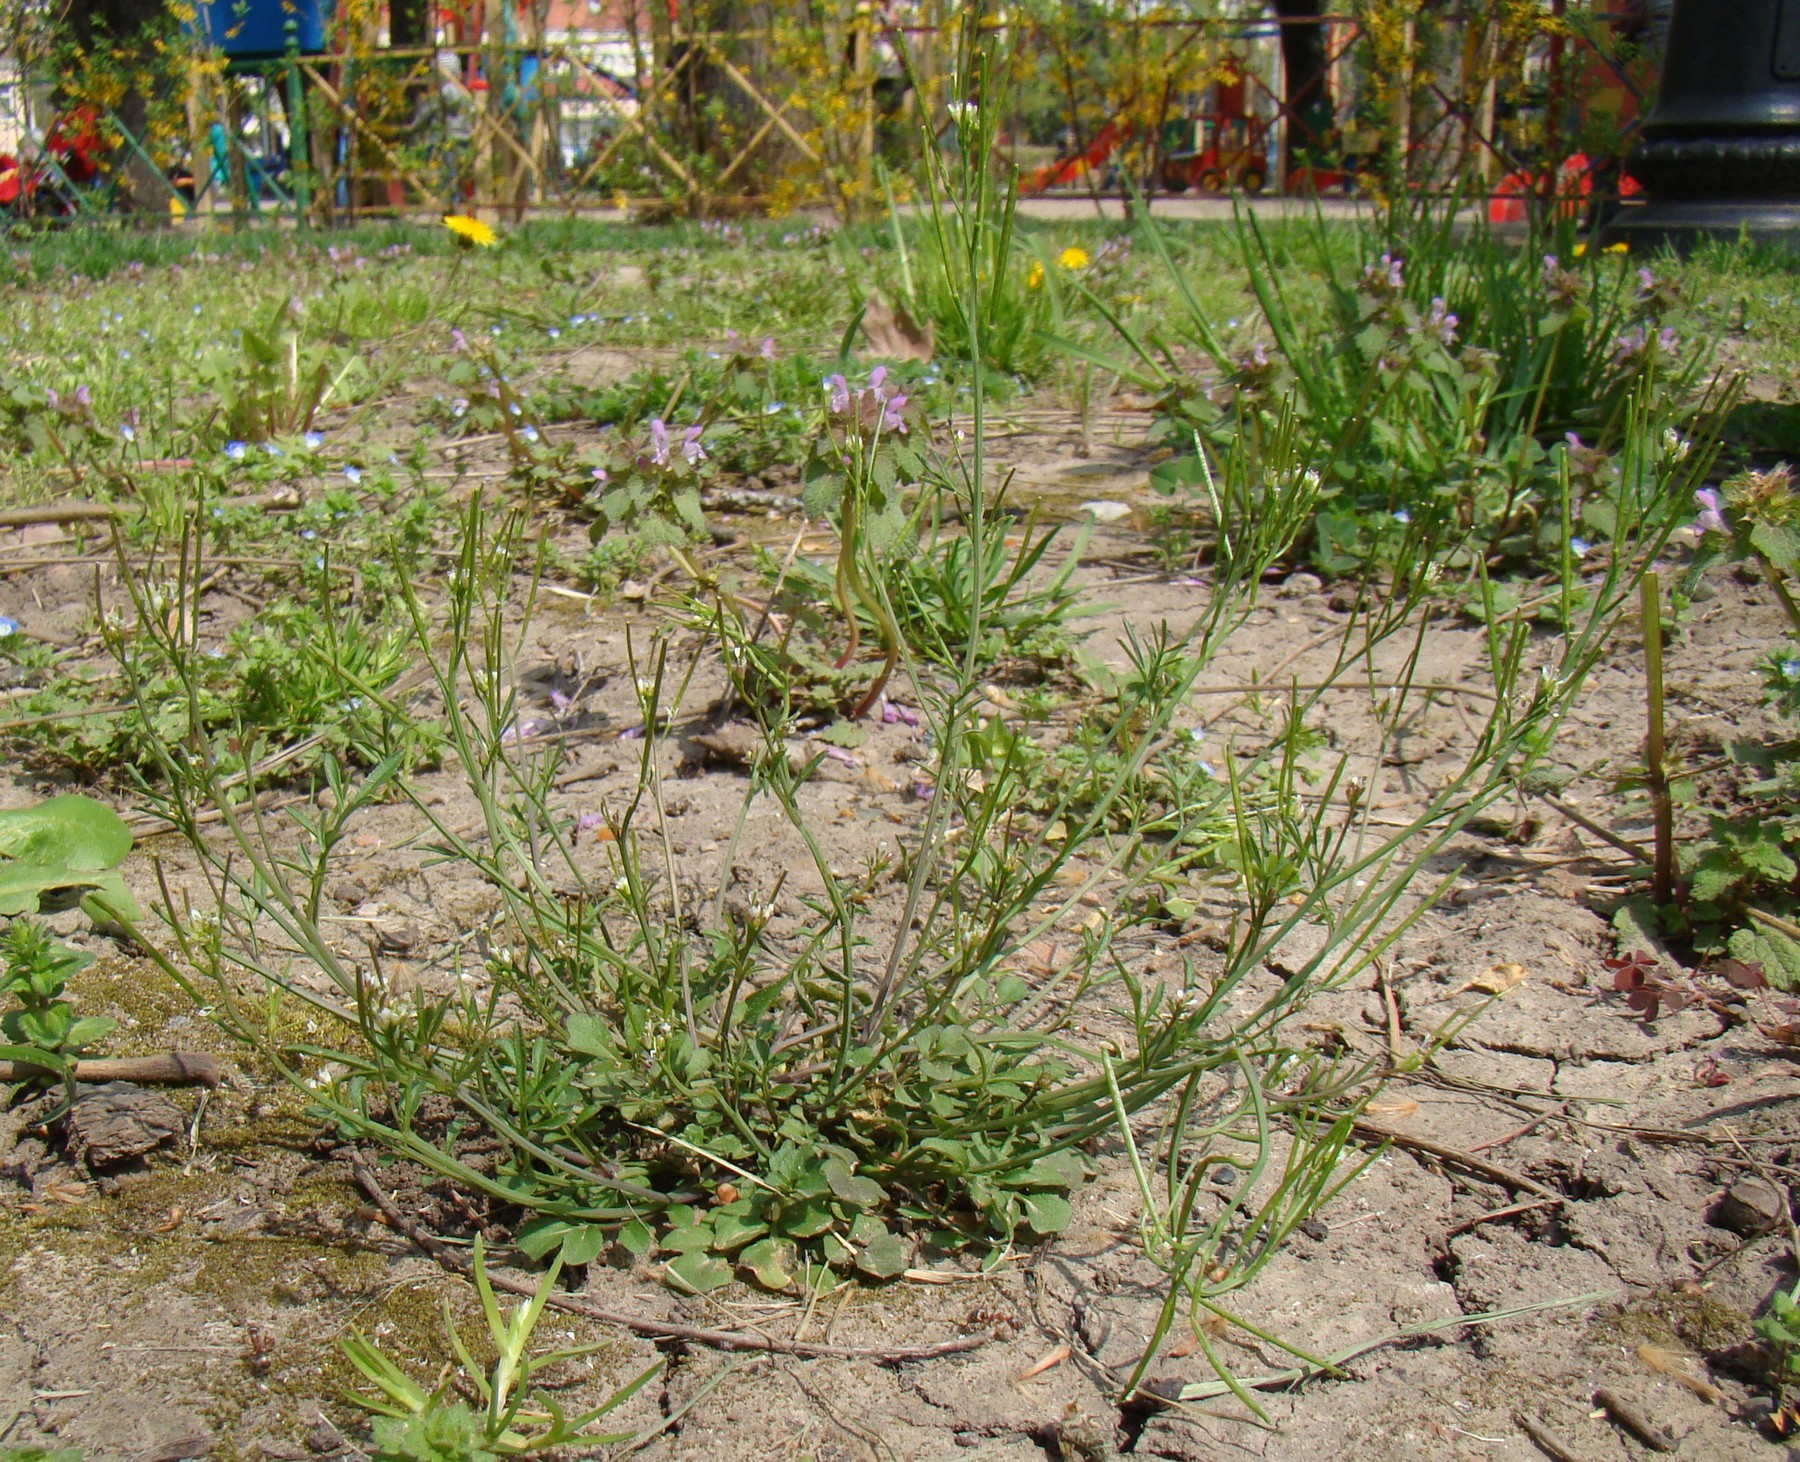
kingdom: Plantae
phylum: Tracheophyta
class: Magnoliopsida
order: Brassicales
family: Brassicaceae
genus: Cardamine
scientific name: Cardamine hirsuta
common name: Hairy bittercress
